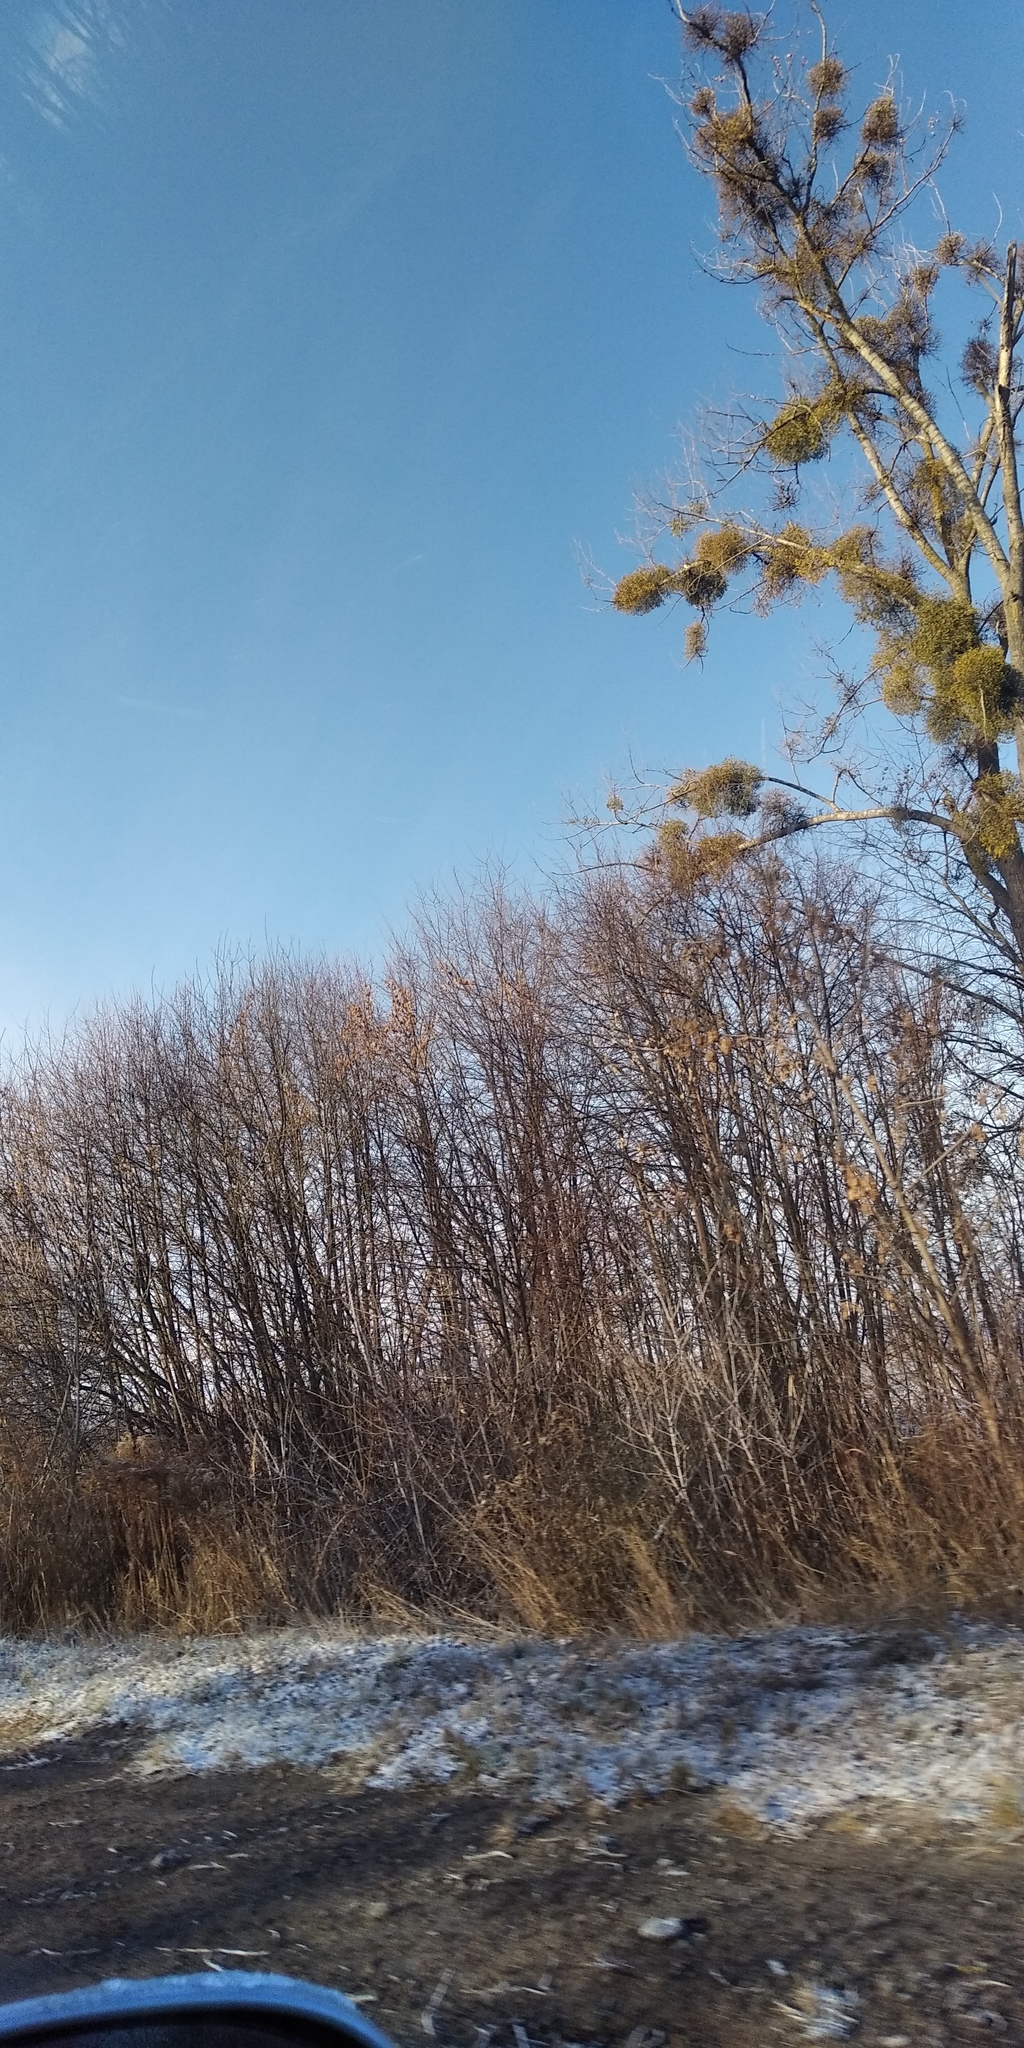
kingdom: Plantae
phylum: Tracheophyta
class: Magnoliopsida
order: Santalales
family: Viscaceae
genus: Viscum
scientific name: Viscum album
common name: Mistletoe
